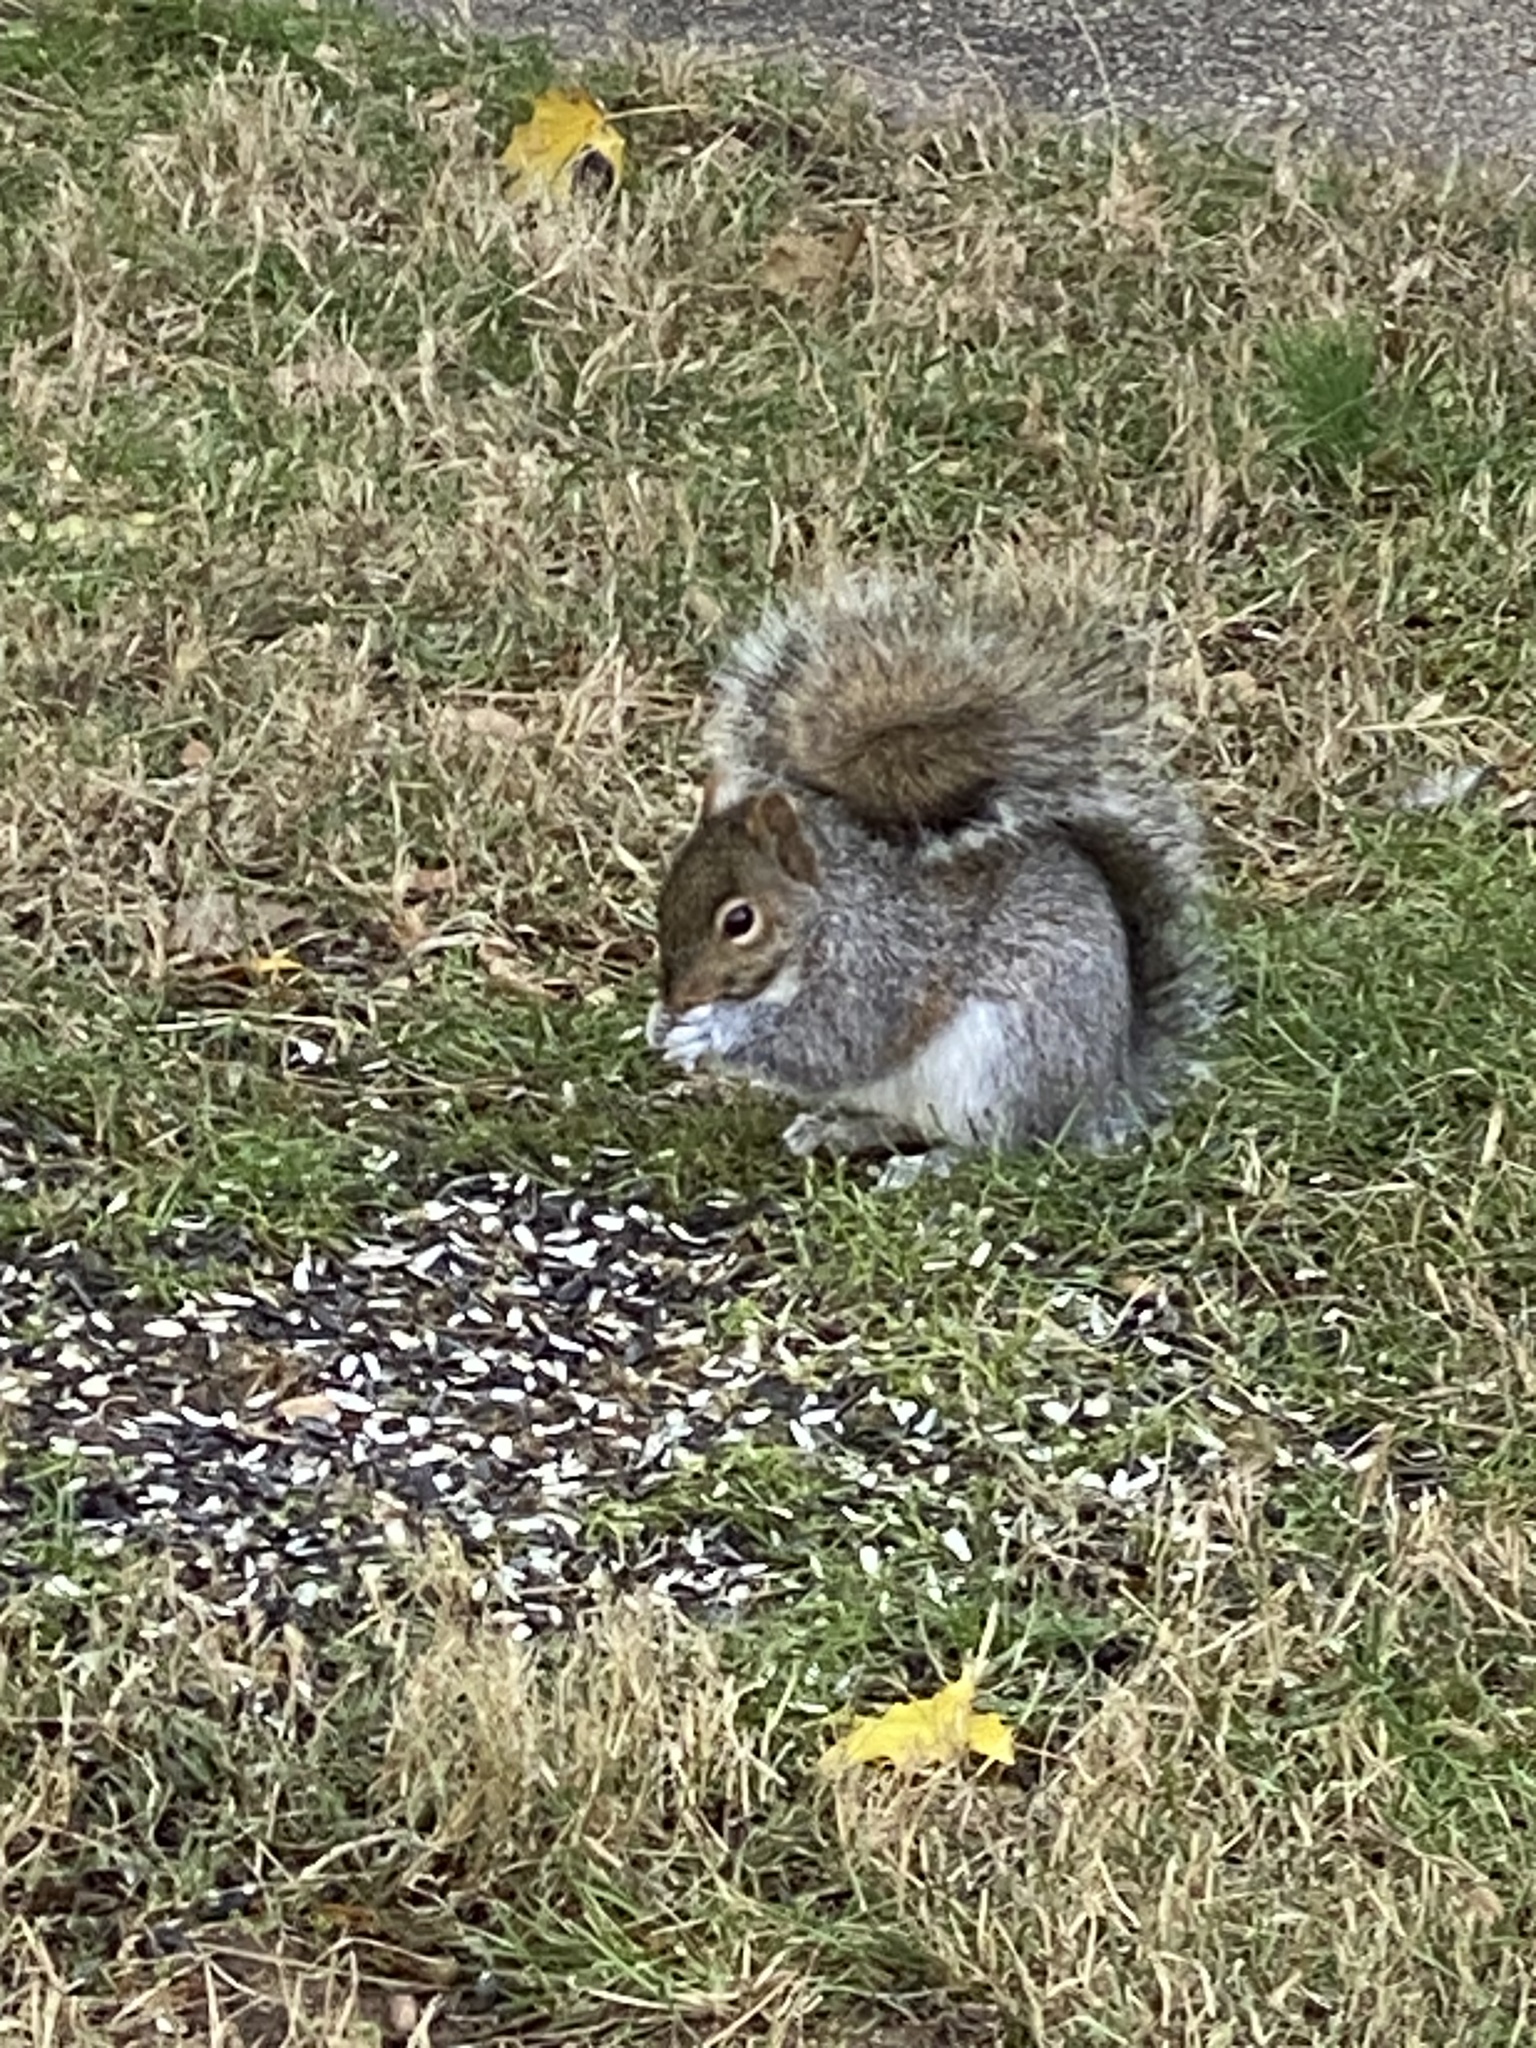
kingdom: Animalia
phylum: Chordata
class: Mammalia
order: Rodentia
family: Sciuridae
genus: Sciurus
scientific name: Sciurus carolinensis
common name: Eastern gray squirrel
